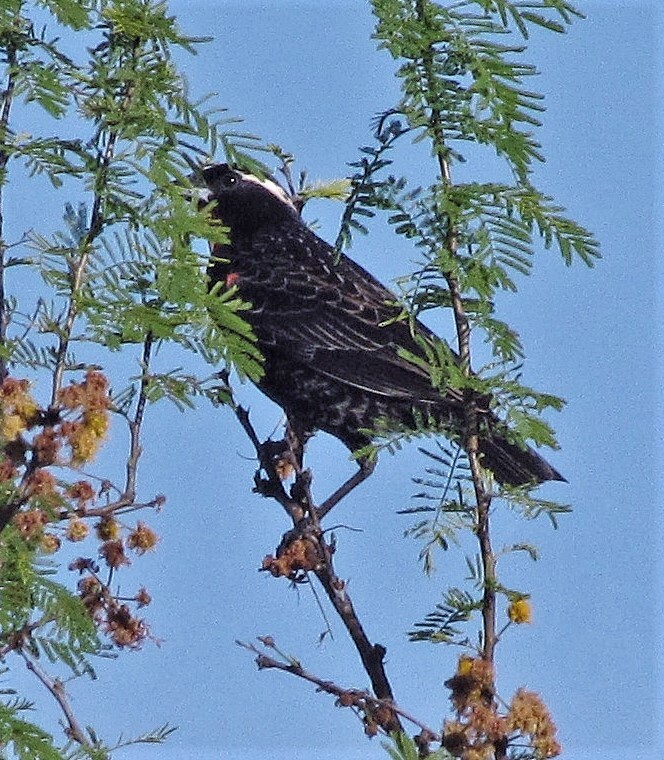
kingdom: Animalia
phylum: Chordata
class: Aves
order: Passeriformes
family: Icteridae
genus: Sturnella
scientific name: Sturnella superciliaris
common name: White-browed blackbird
